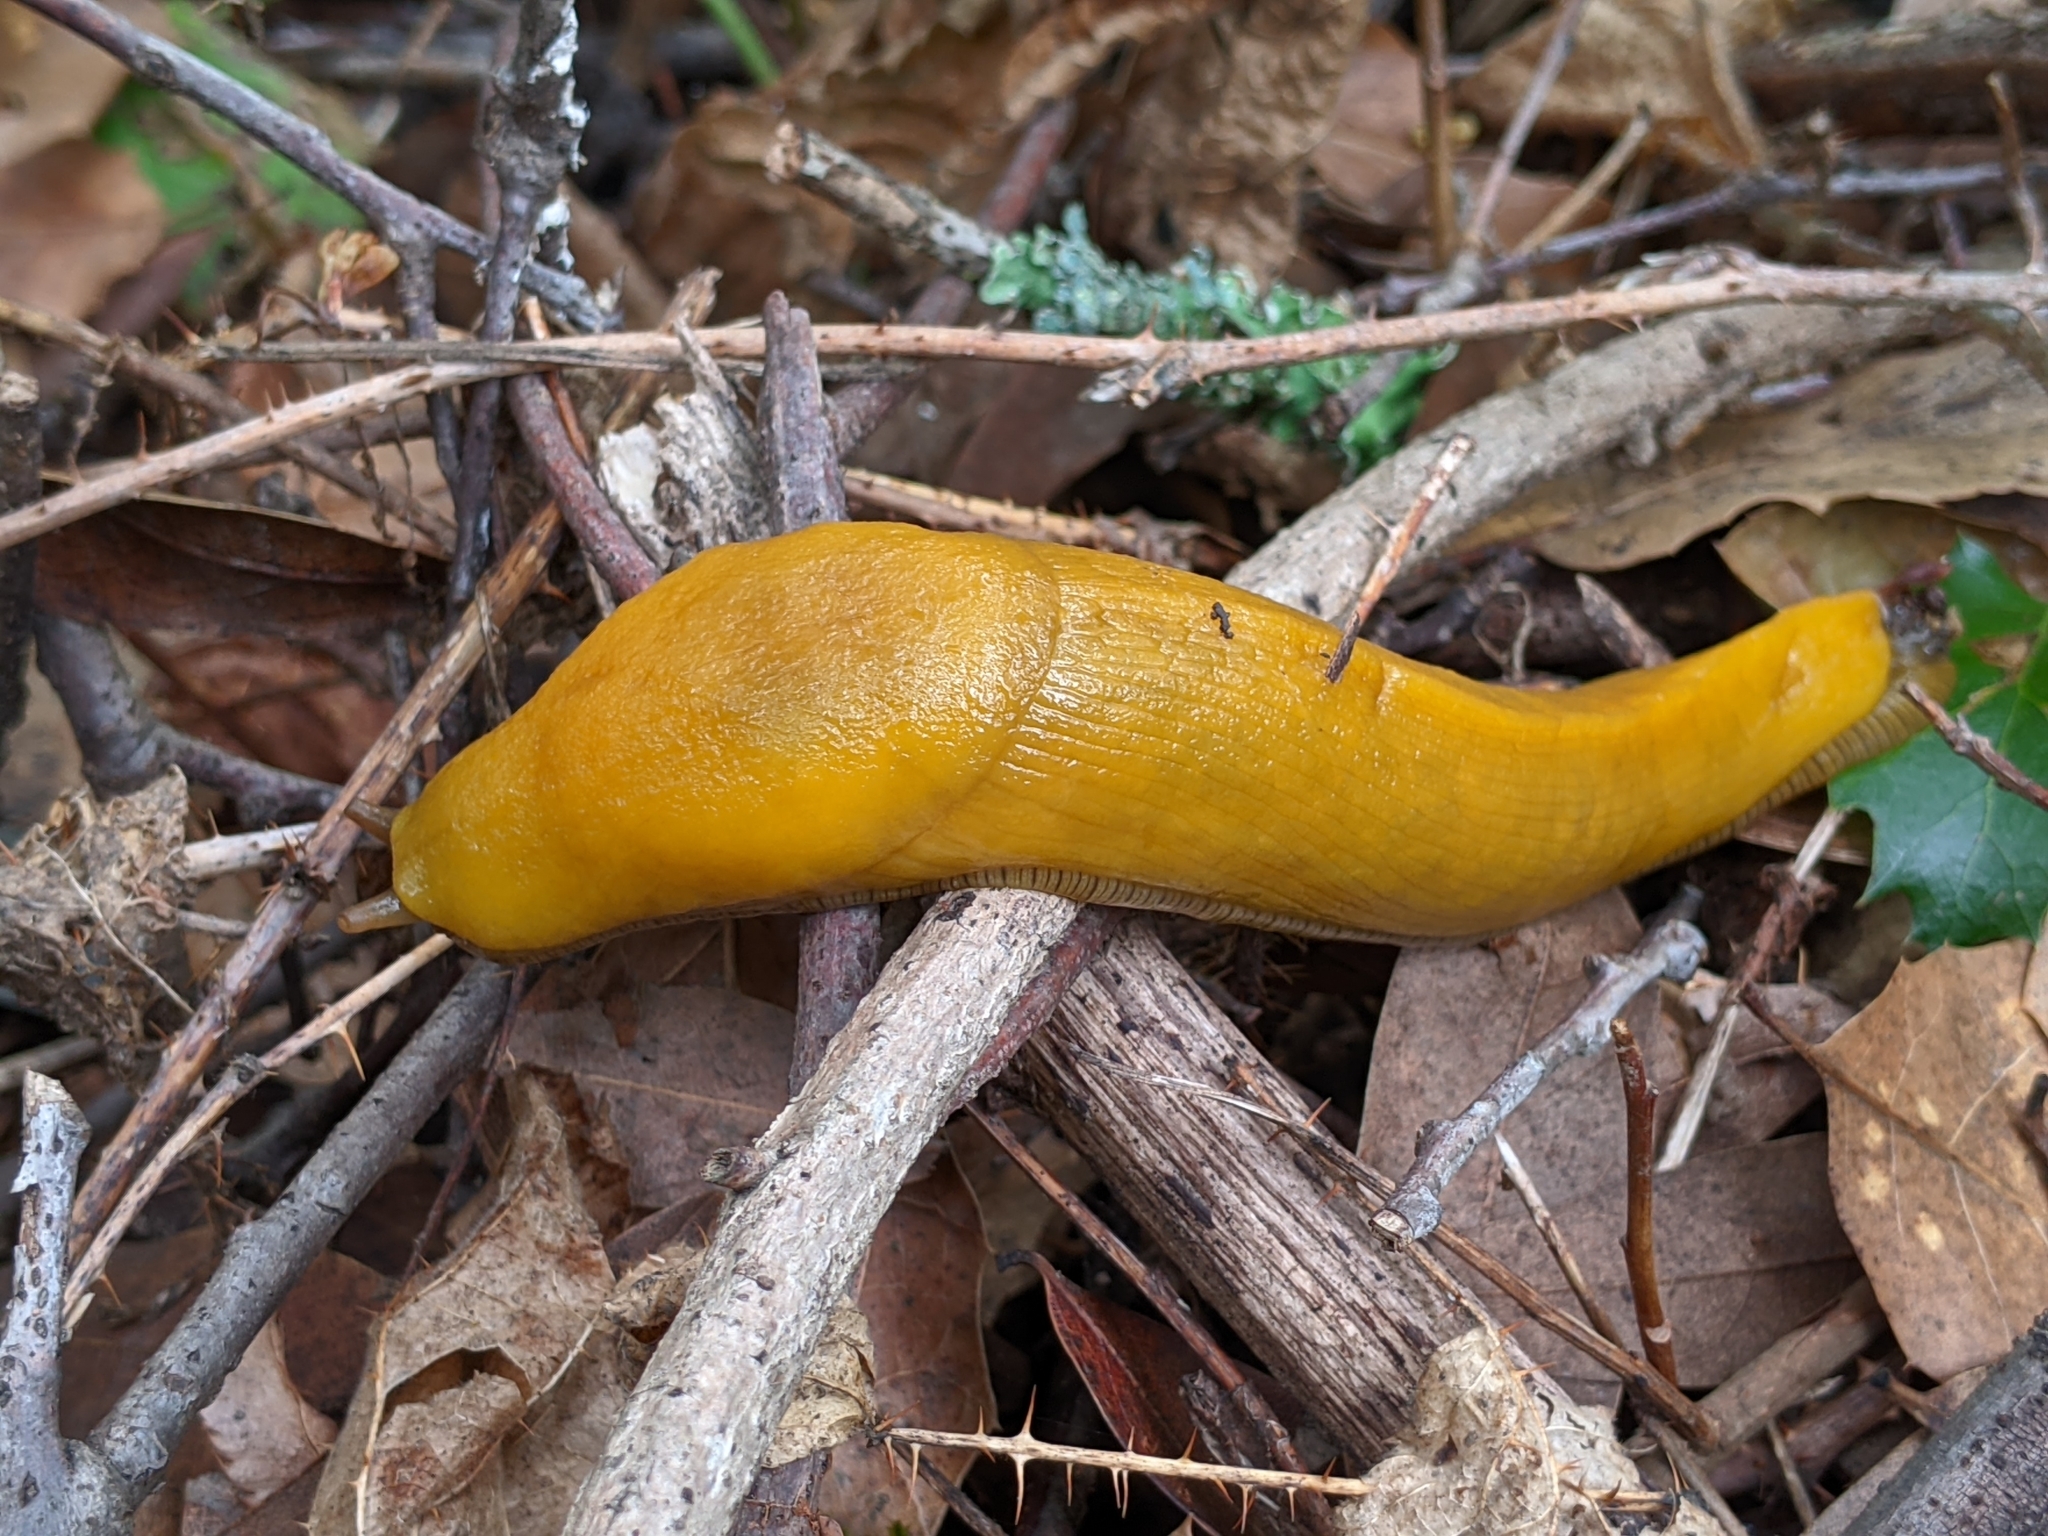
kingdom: Animalia
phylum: Mollusca
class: Gastropoda
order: Stylommatophora
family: Ariolimacidae
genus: Ariolimax
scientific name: Ariolimax buttoni
